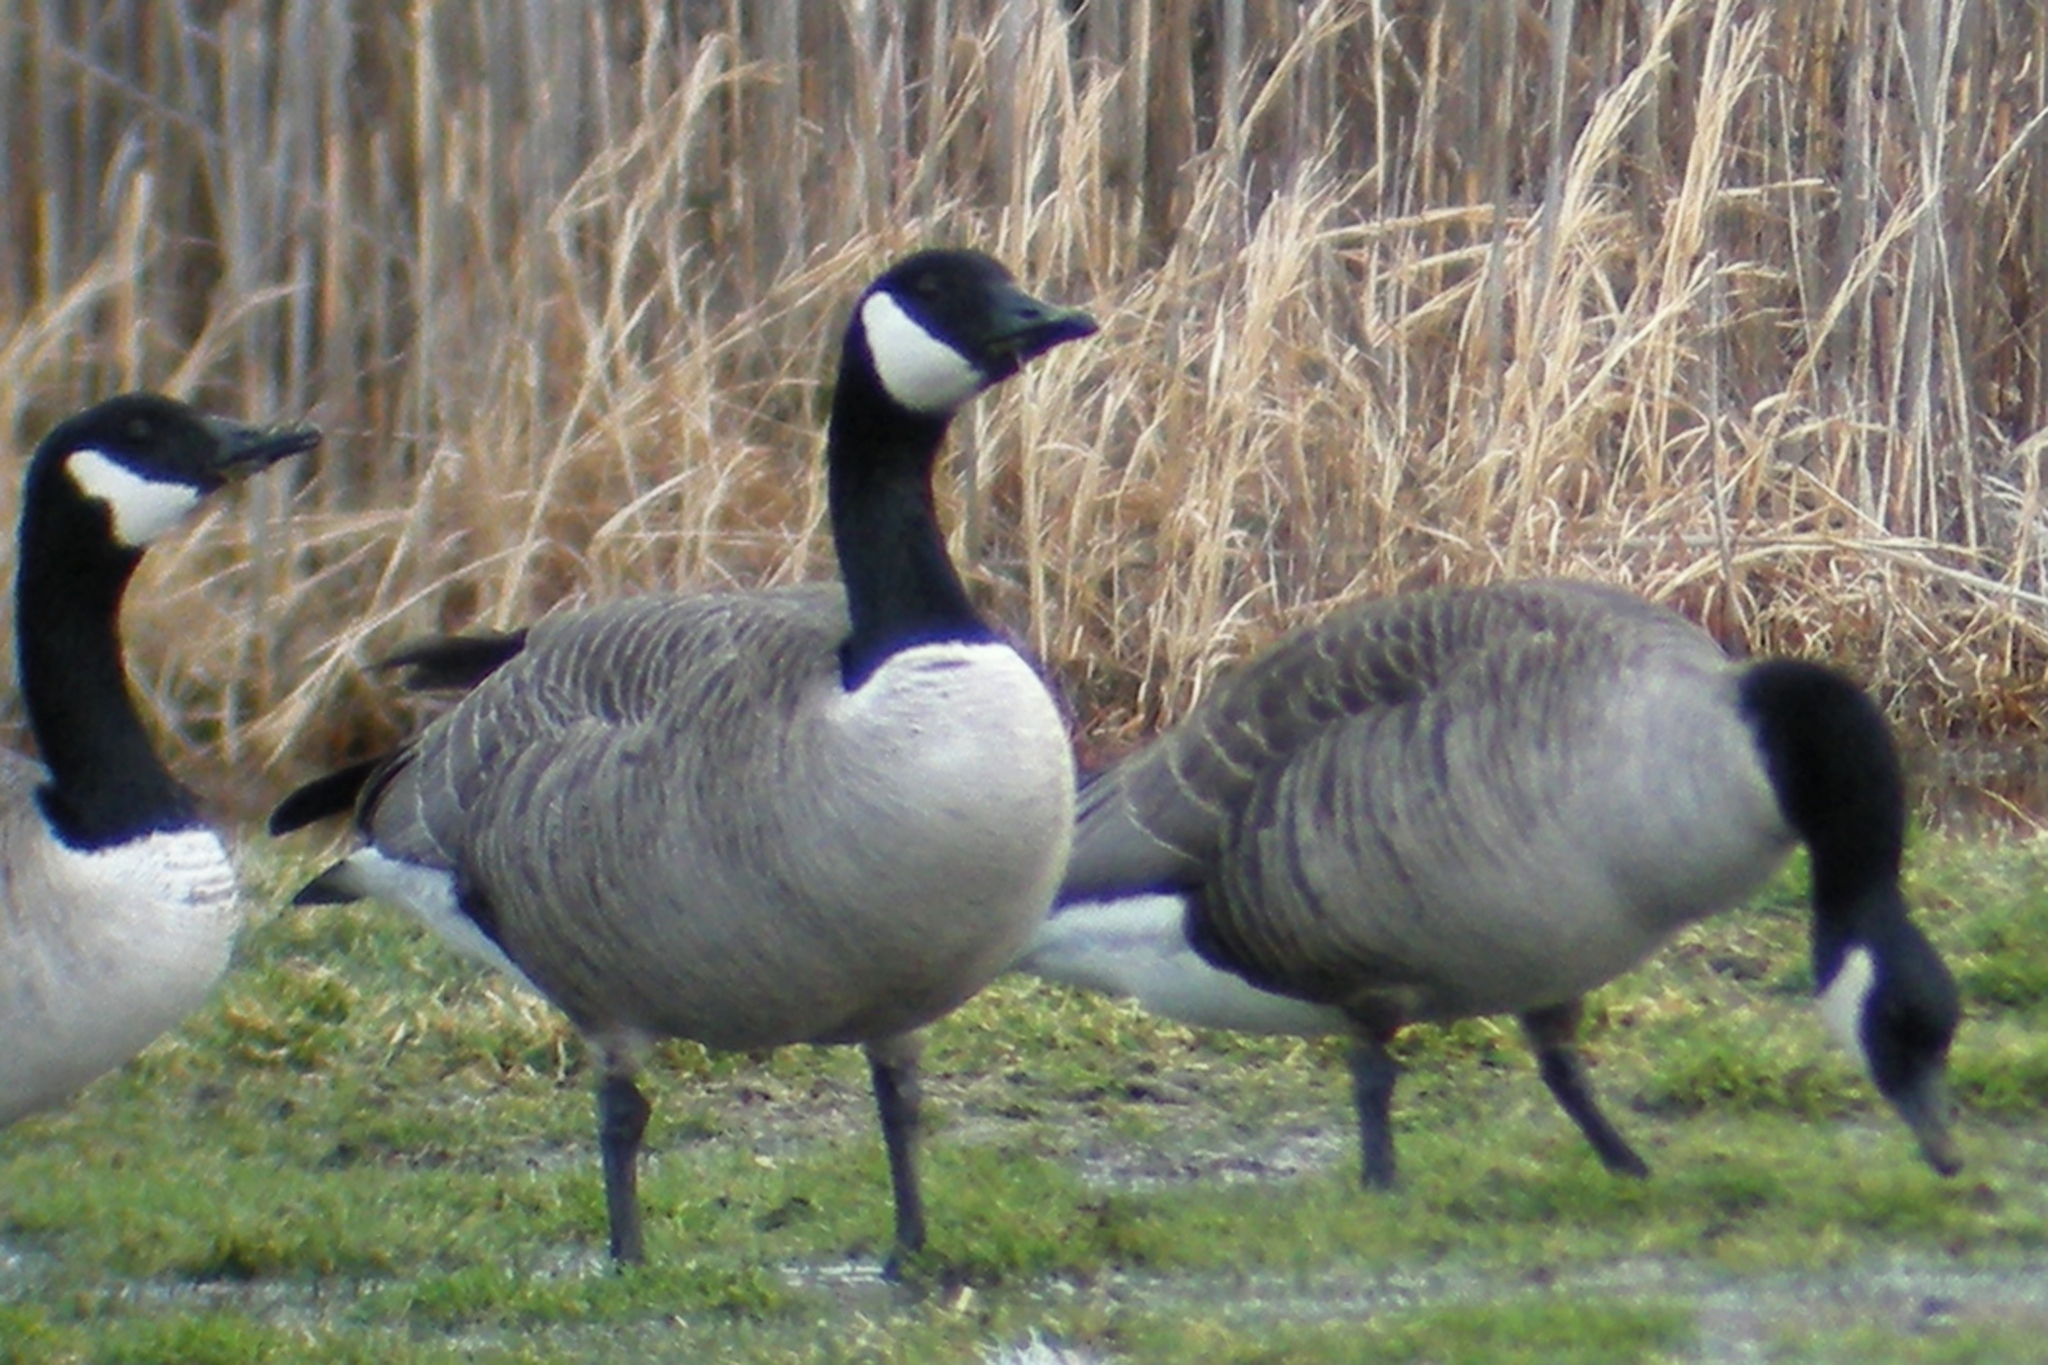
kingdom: Animalia
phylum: Chordata
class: Aves
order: Anseriformes
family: Anatidae
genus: Branta
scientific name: Branta canadensis
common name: Canada goose
